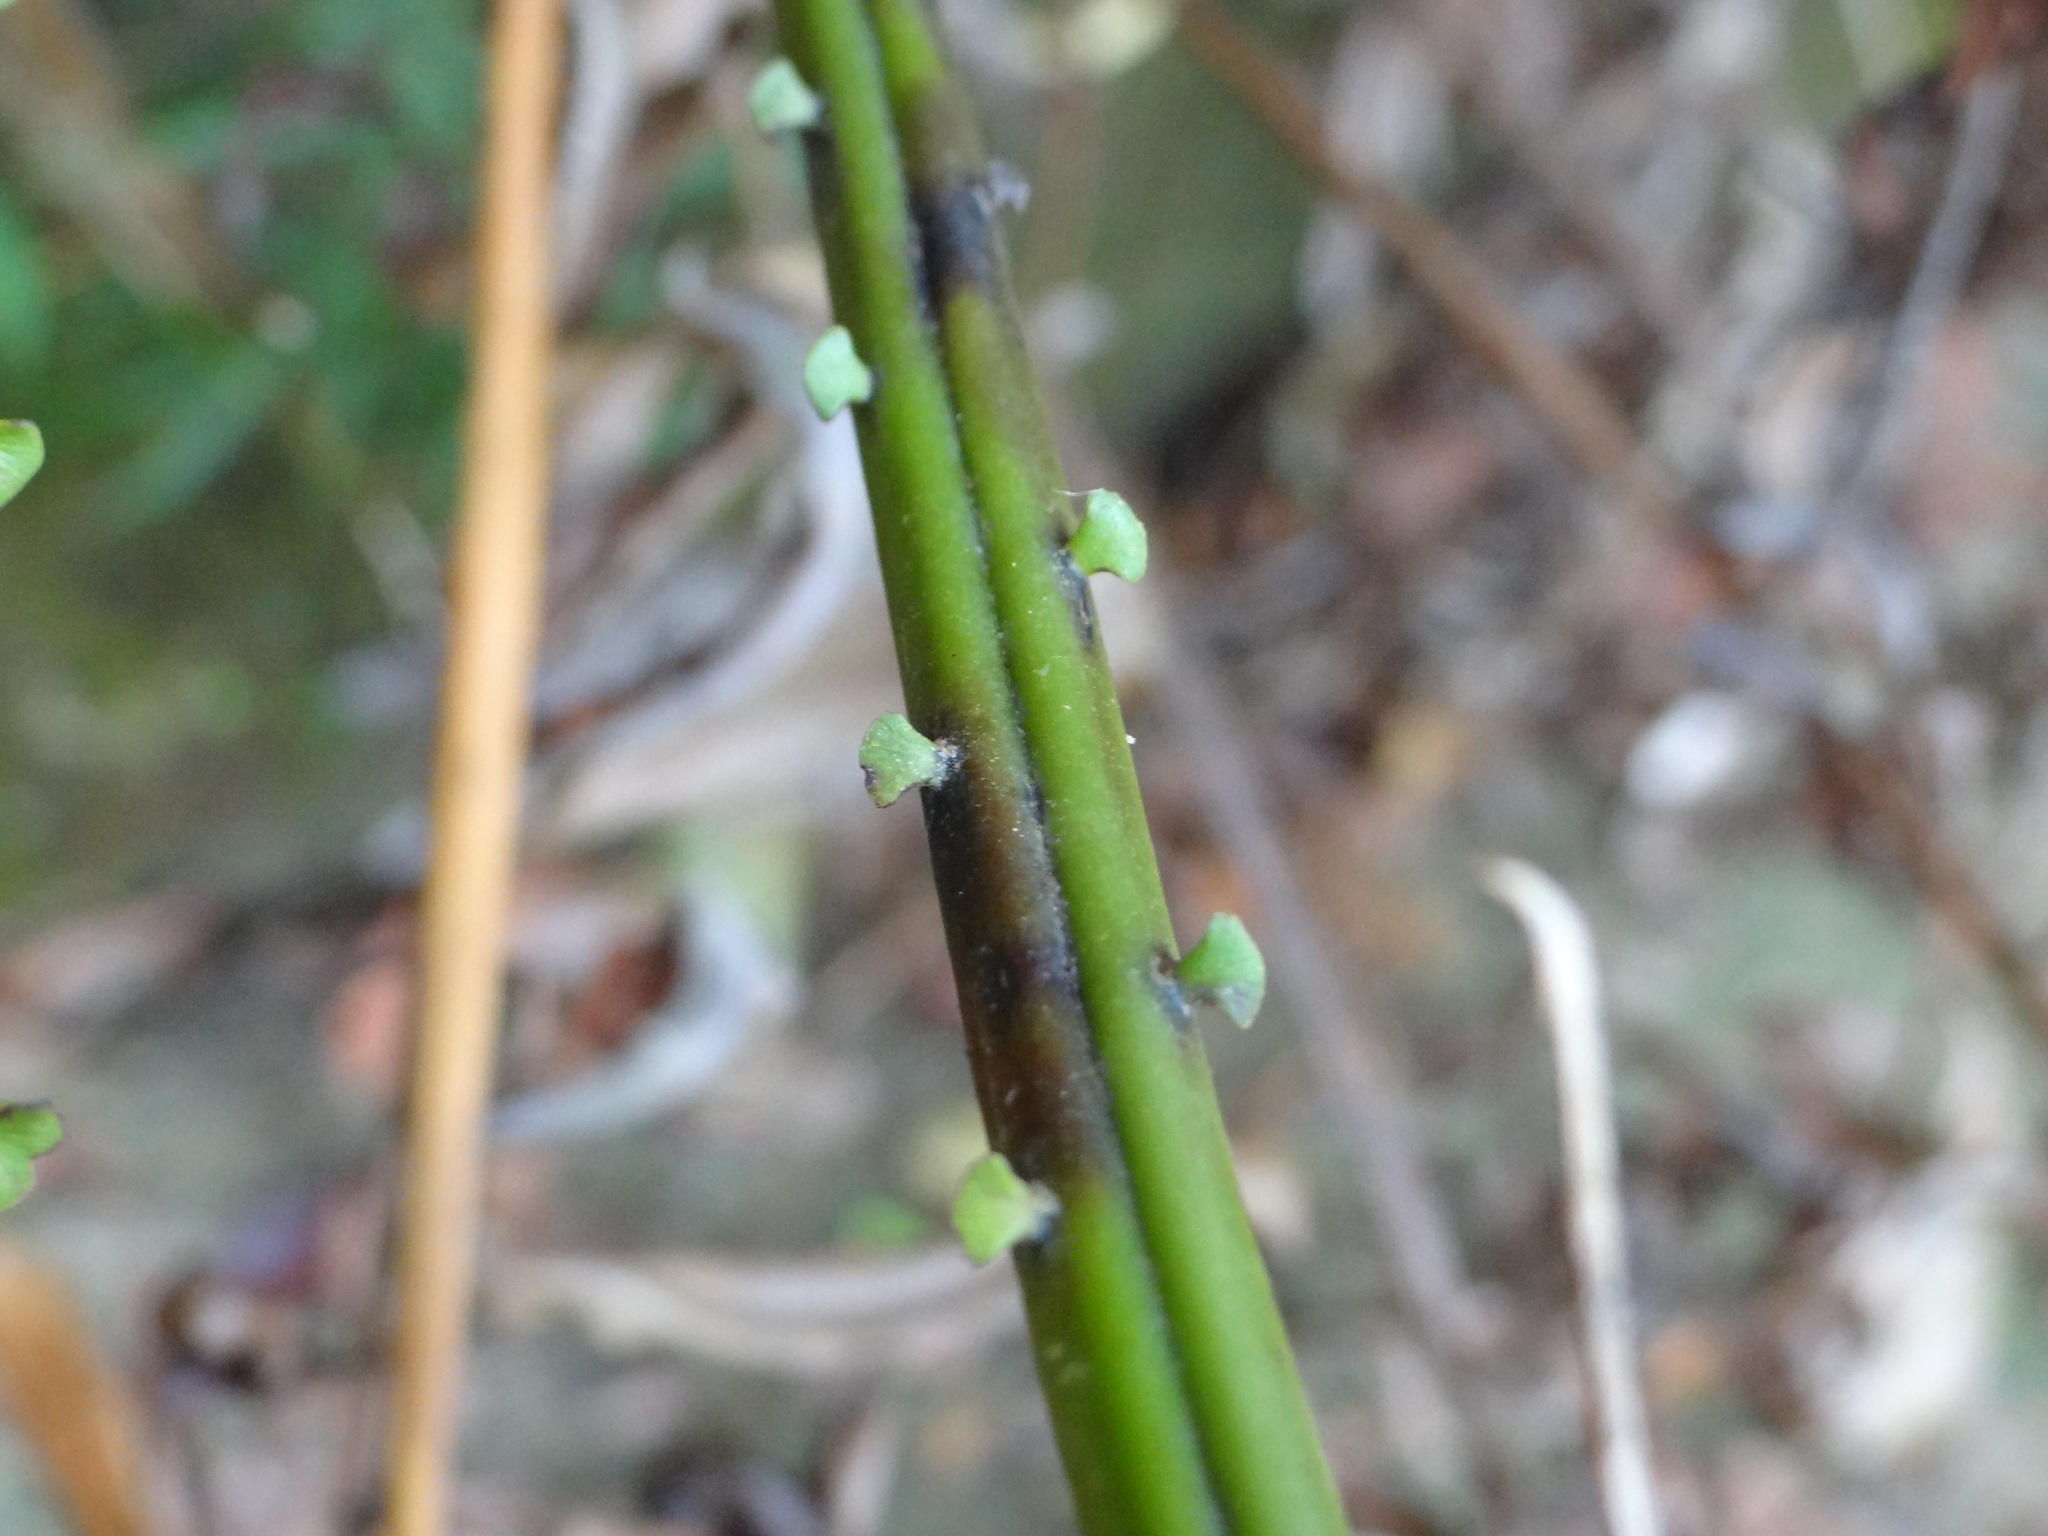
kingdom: Plantae
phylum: Tracheophyta
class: Polypodiopsida
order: Polypodiales
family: Blechnaceae
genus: Blechnopsis
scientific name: Blechnopsis orientalis
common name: Oriental blechnum
